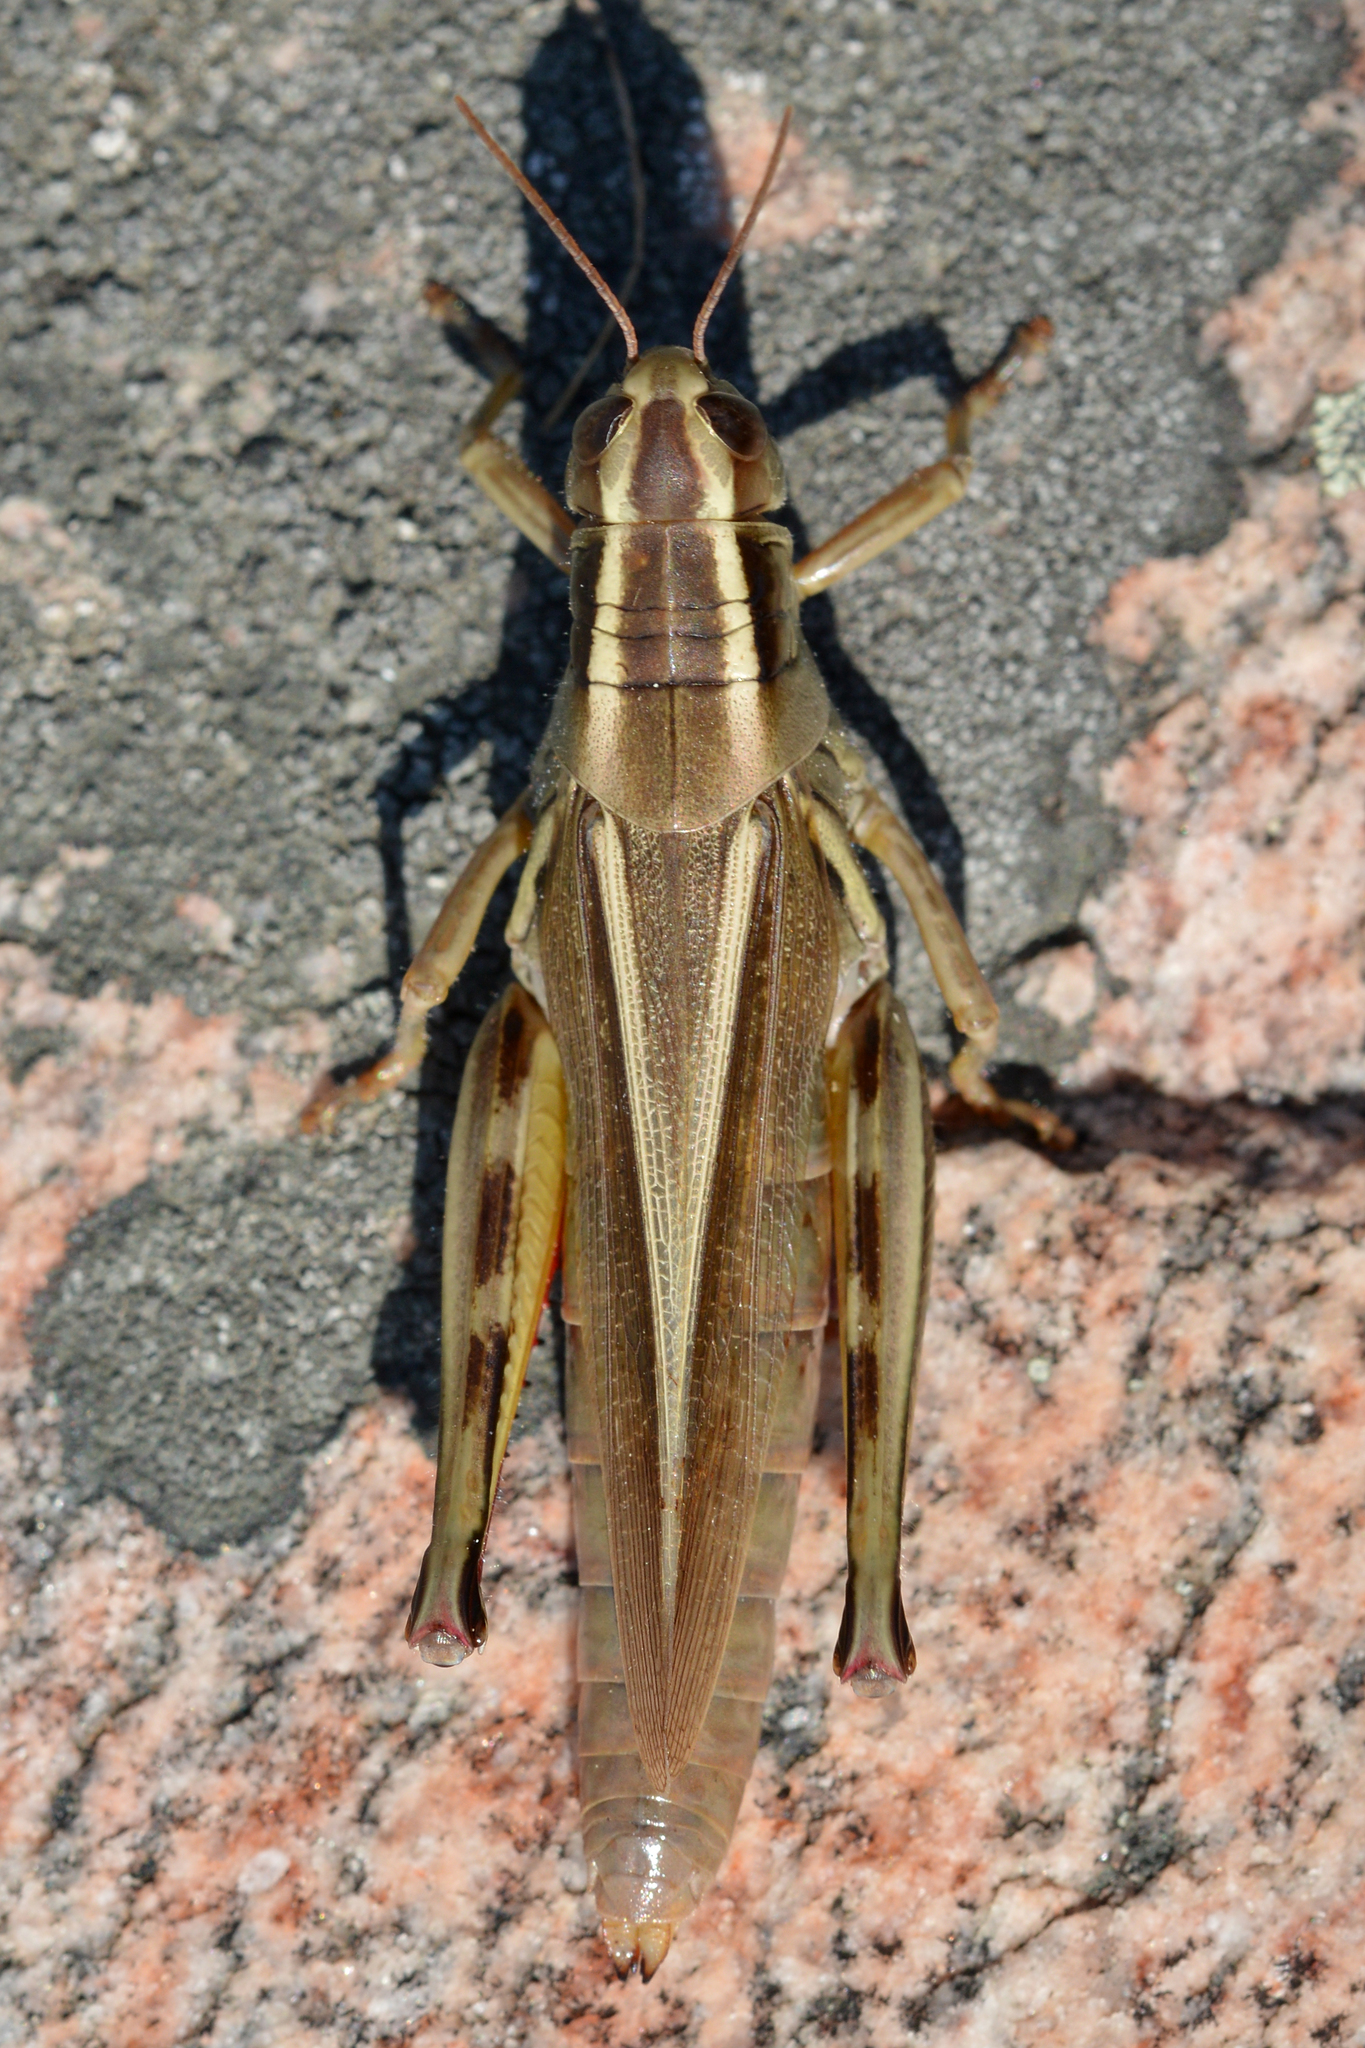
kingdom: Animalia
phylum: Arthropoda
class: Insecta
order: Orthoptera
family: Acrididae
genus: Melanoplus
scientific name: Melanoplus bivittatus
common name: Two-striped grasshopper
